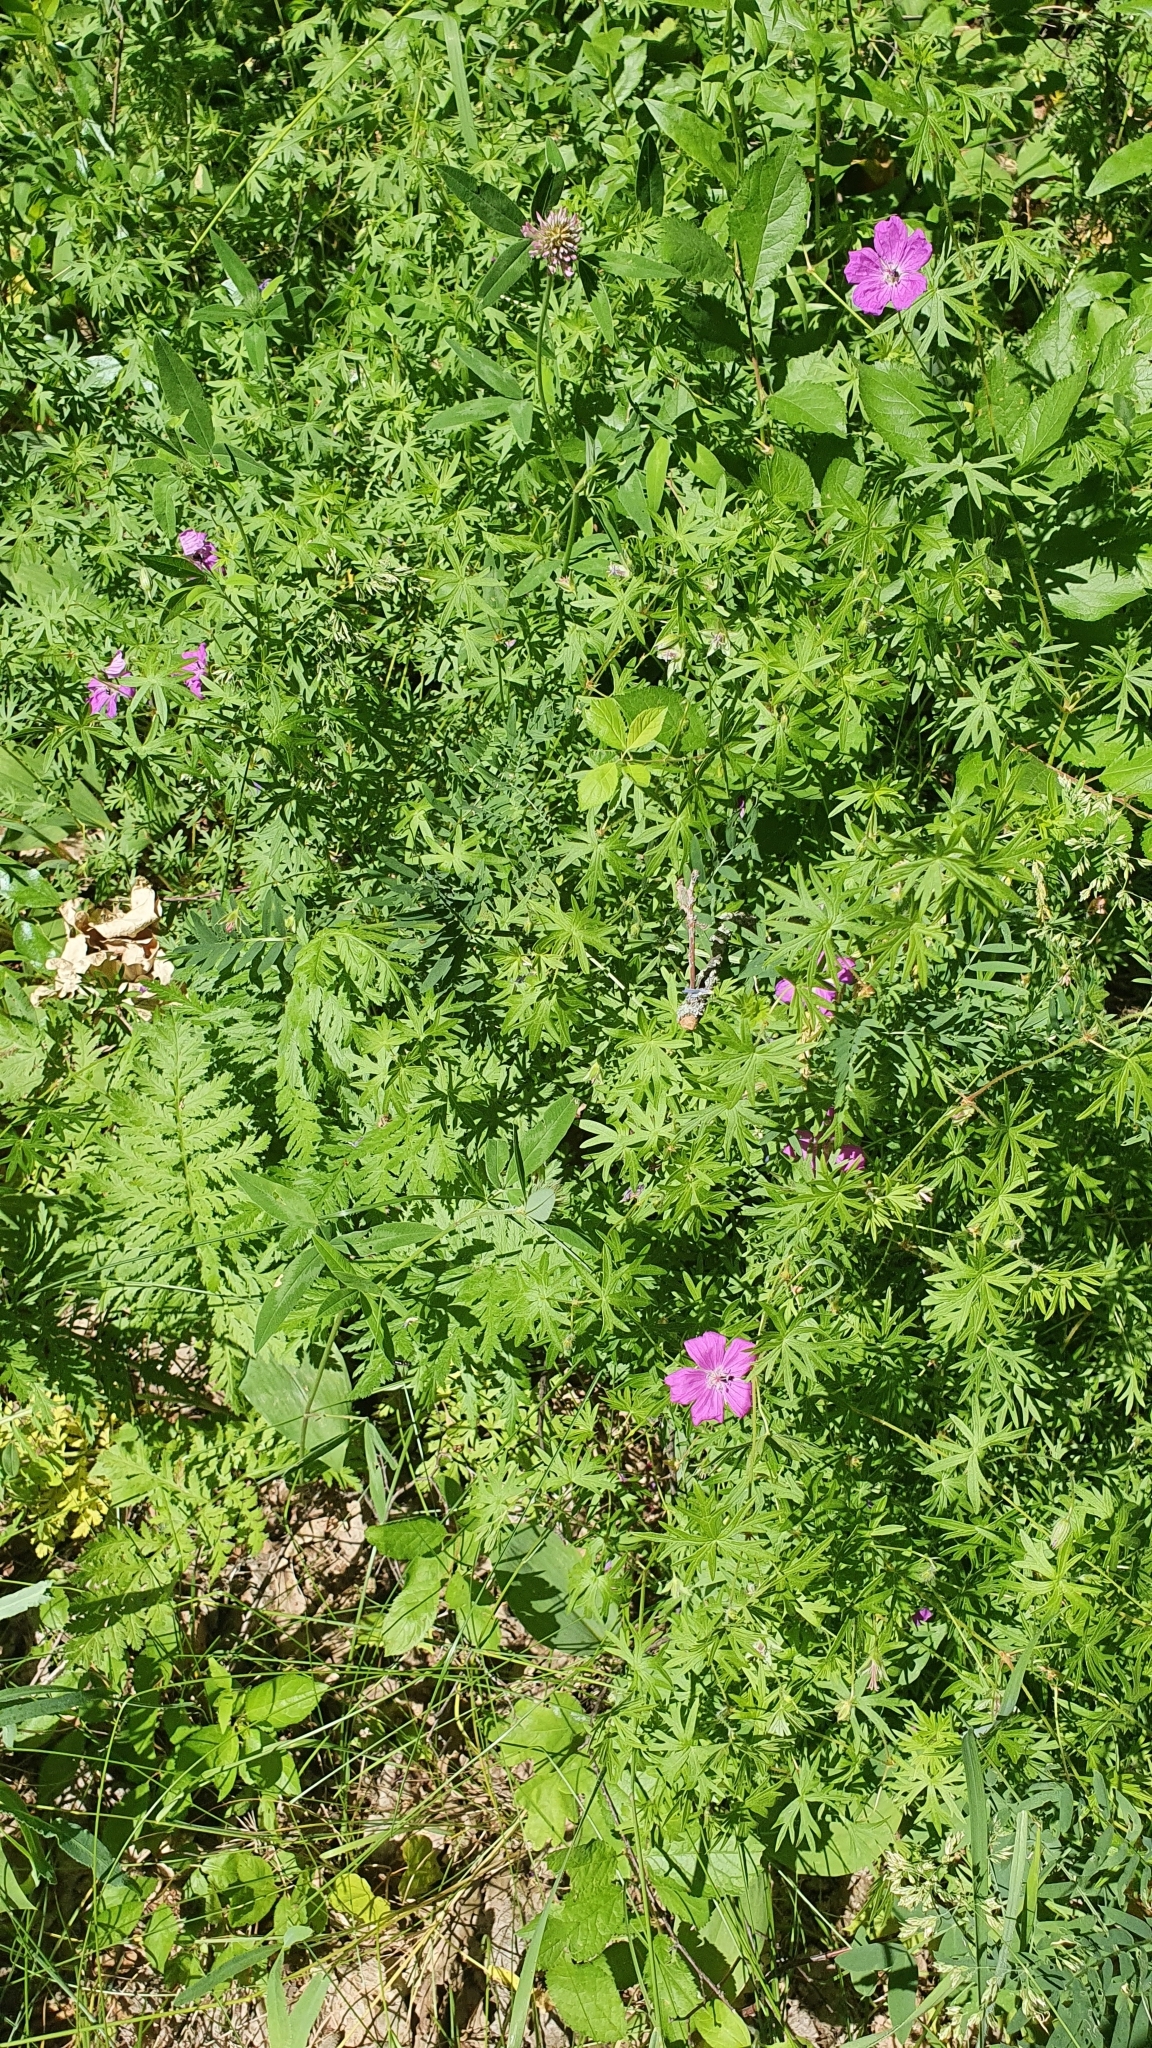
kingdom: Plantae
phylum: Tracheophyta
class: Magnoliopsida
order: Geraniales
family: Geraniaceae
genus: Geranium
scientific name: Geranium sanguineum
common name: Bloody crane's-bill
